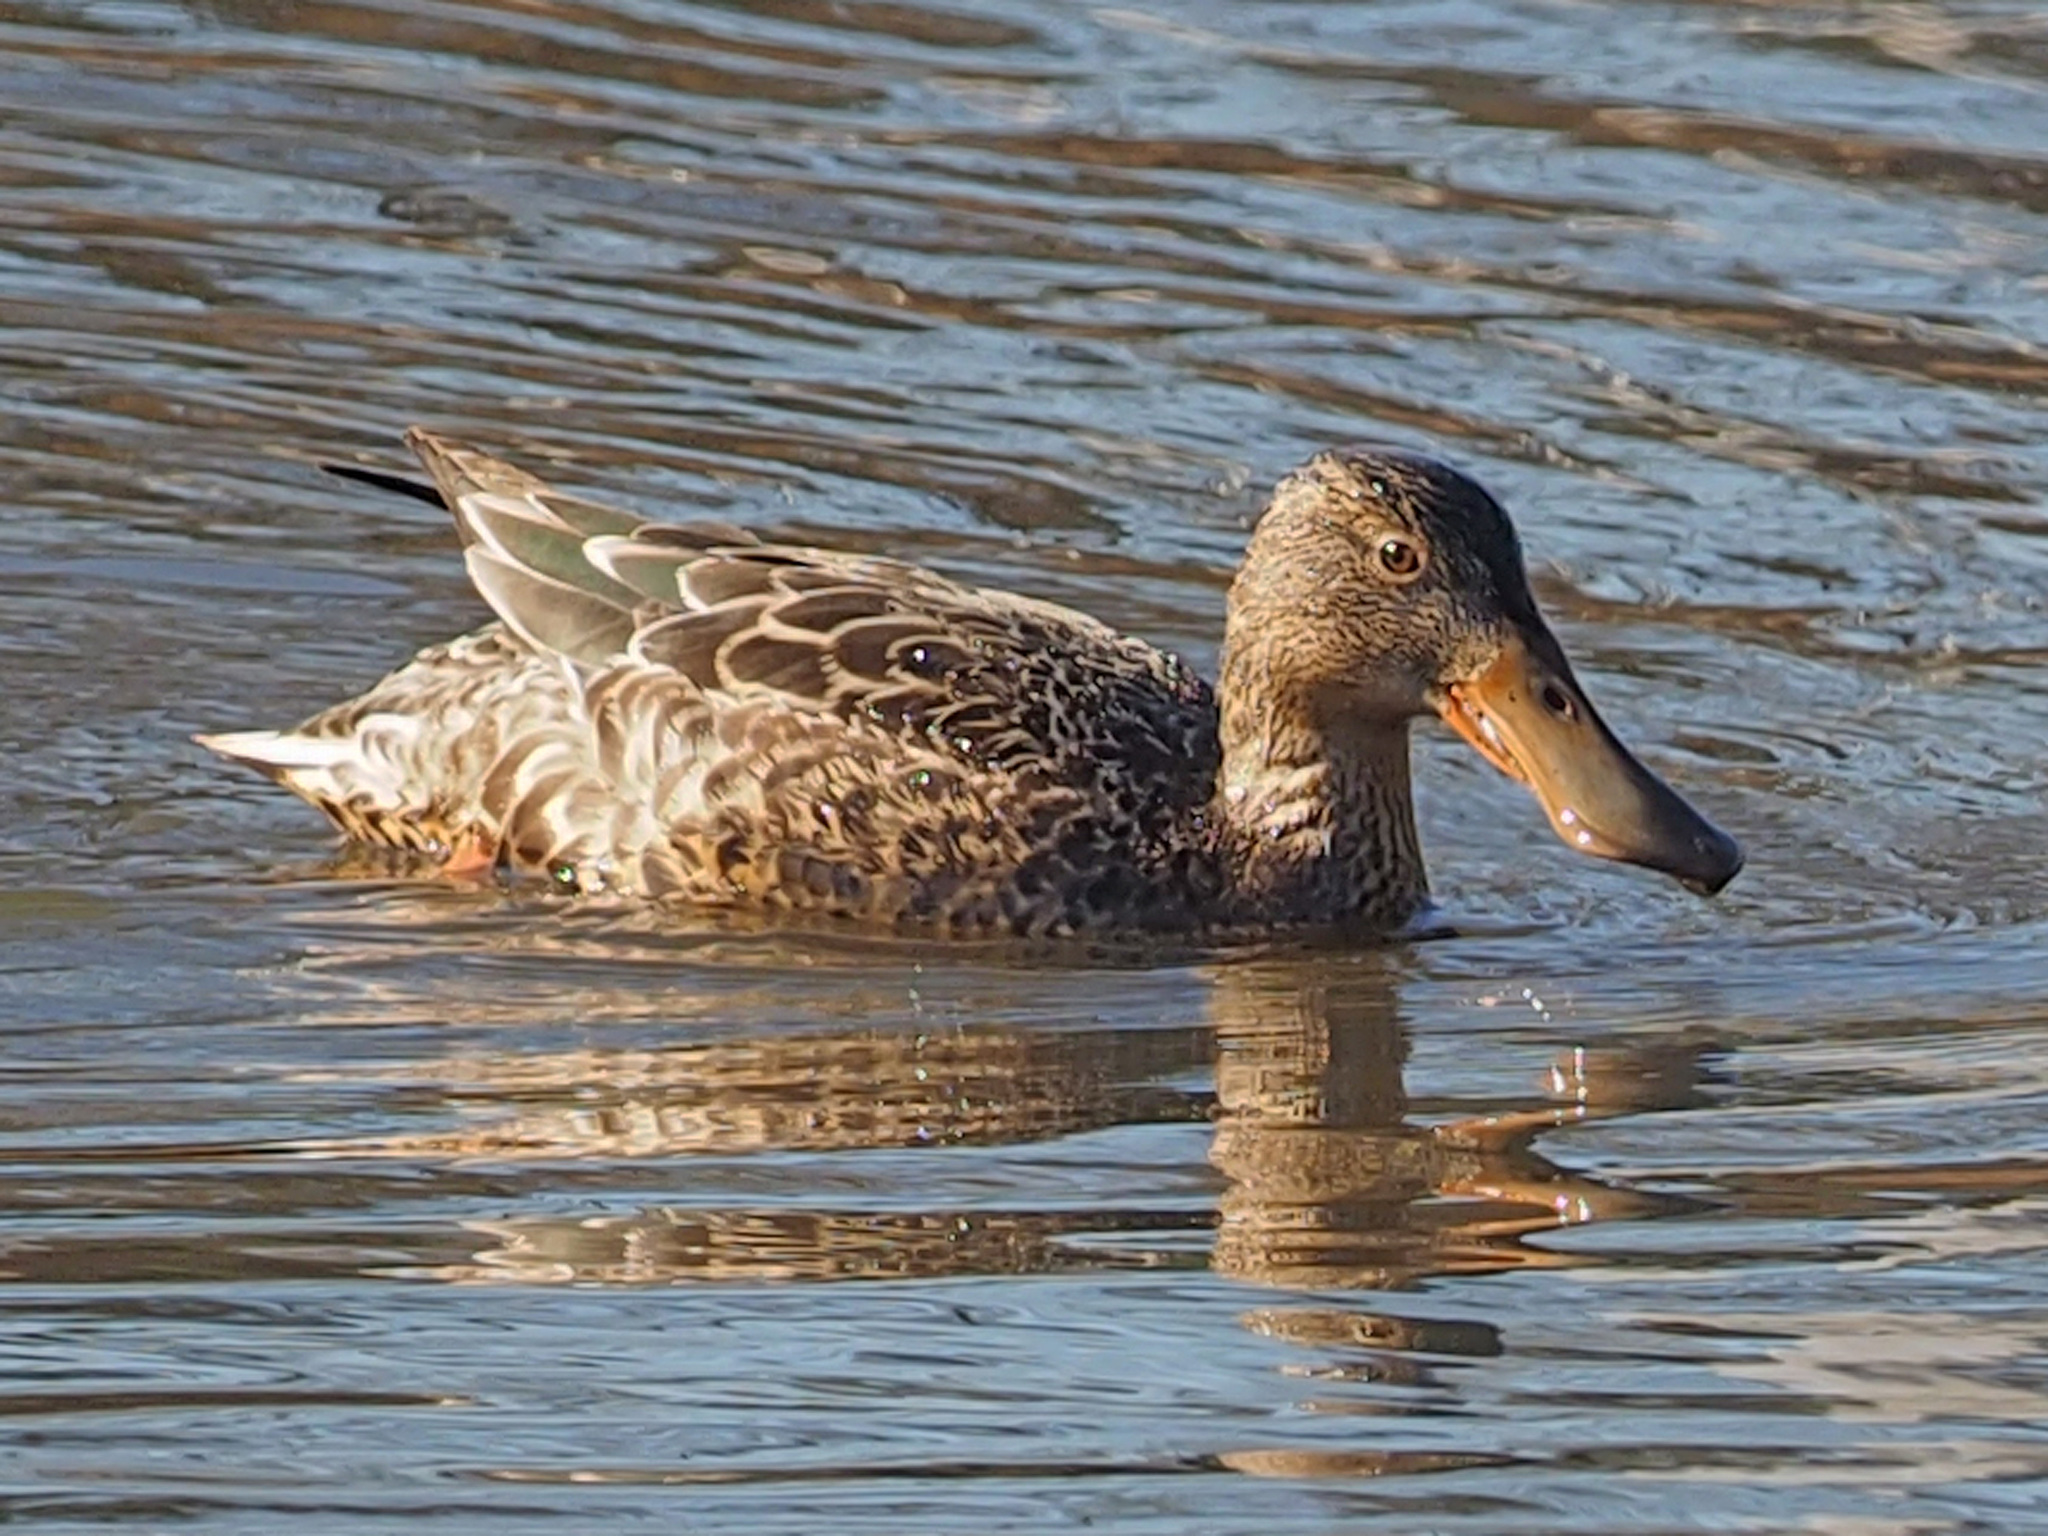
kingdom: Animalia
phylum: Chordata
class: Aves
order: Anseriformes
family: Anatidae
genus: Spatula
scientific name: Spatula clypeata
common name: Northern shoveler
